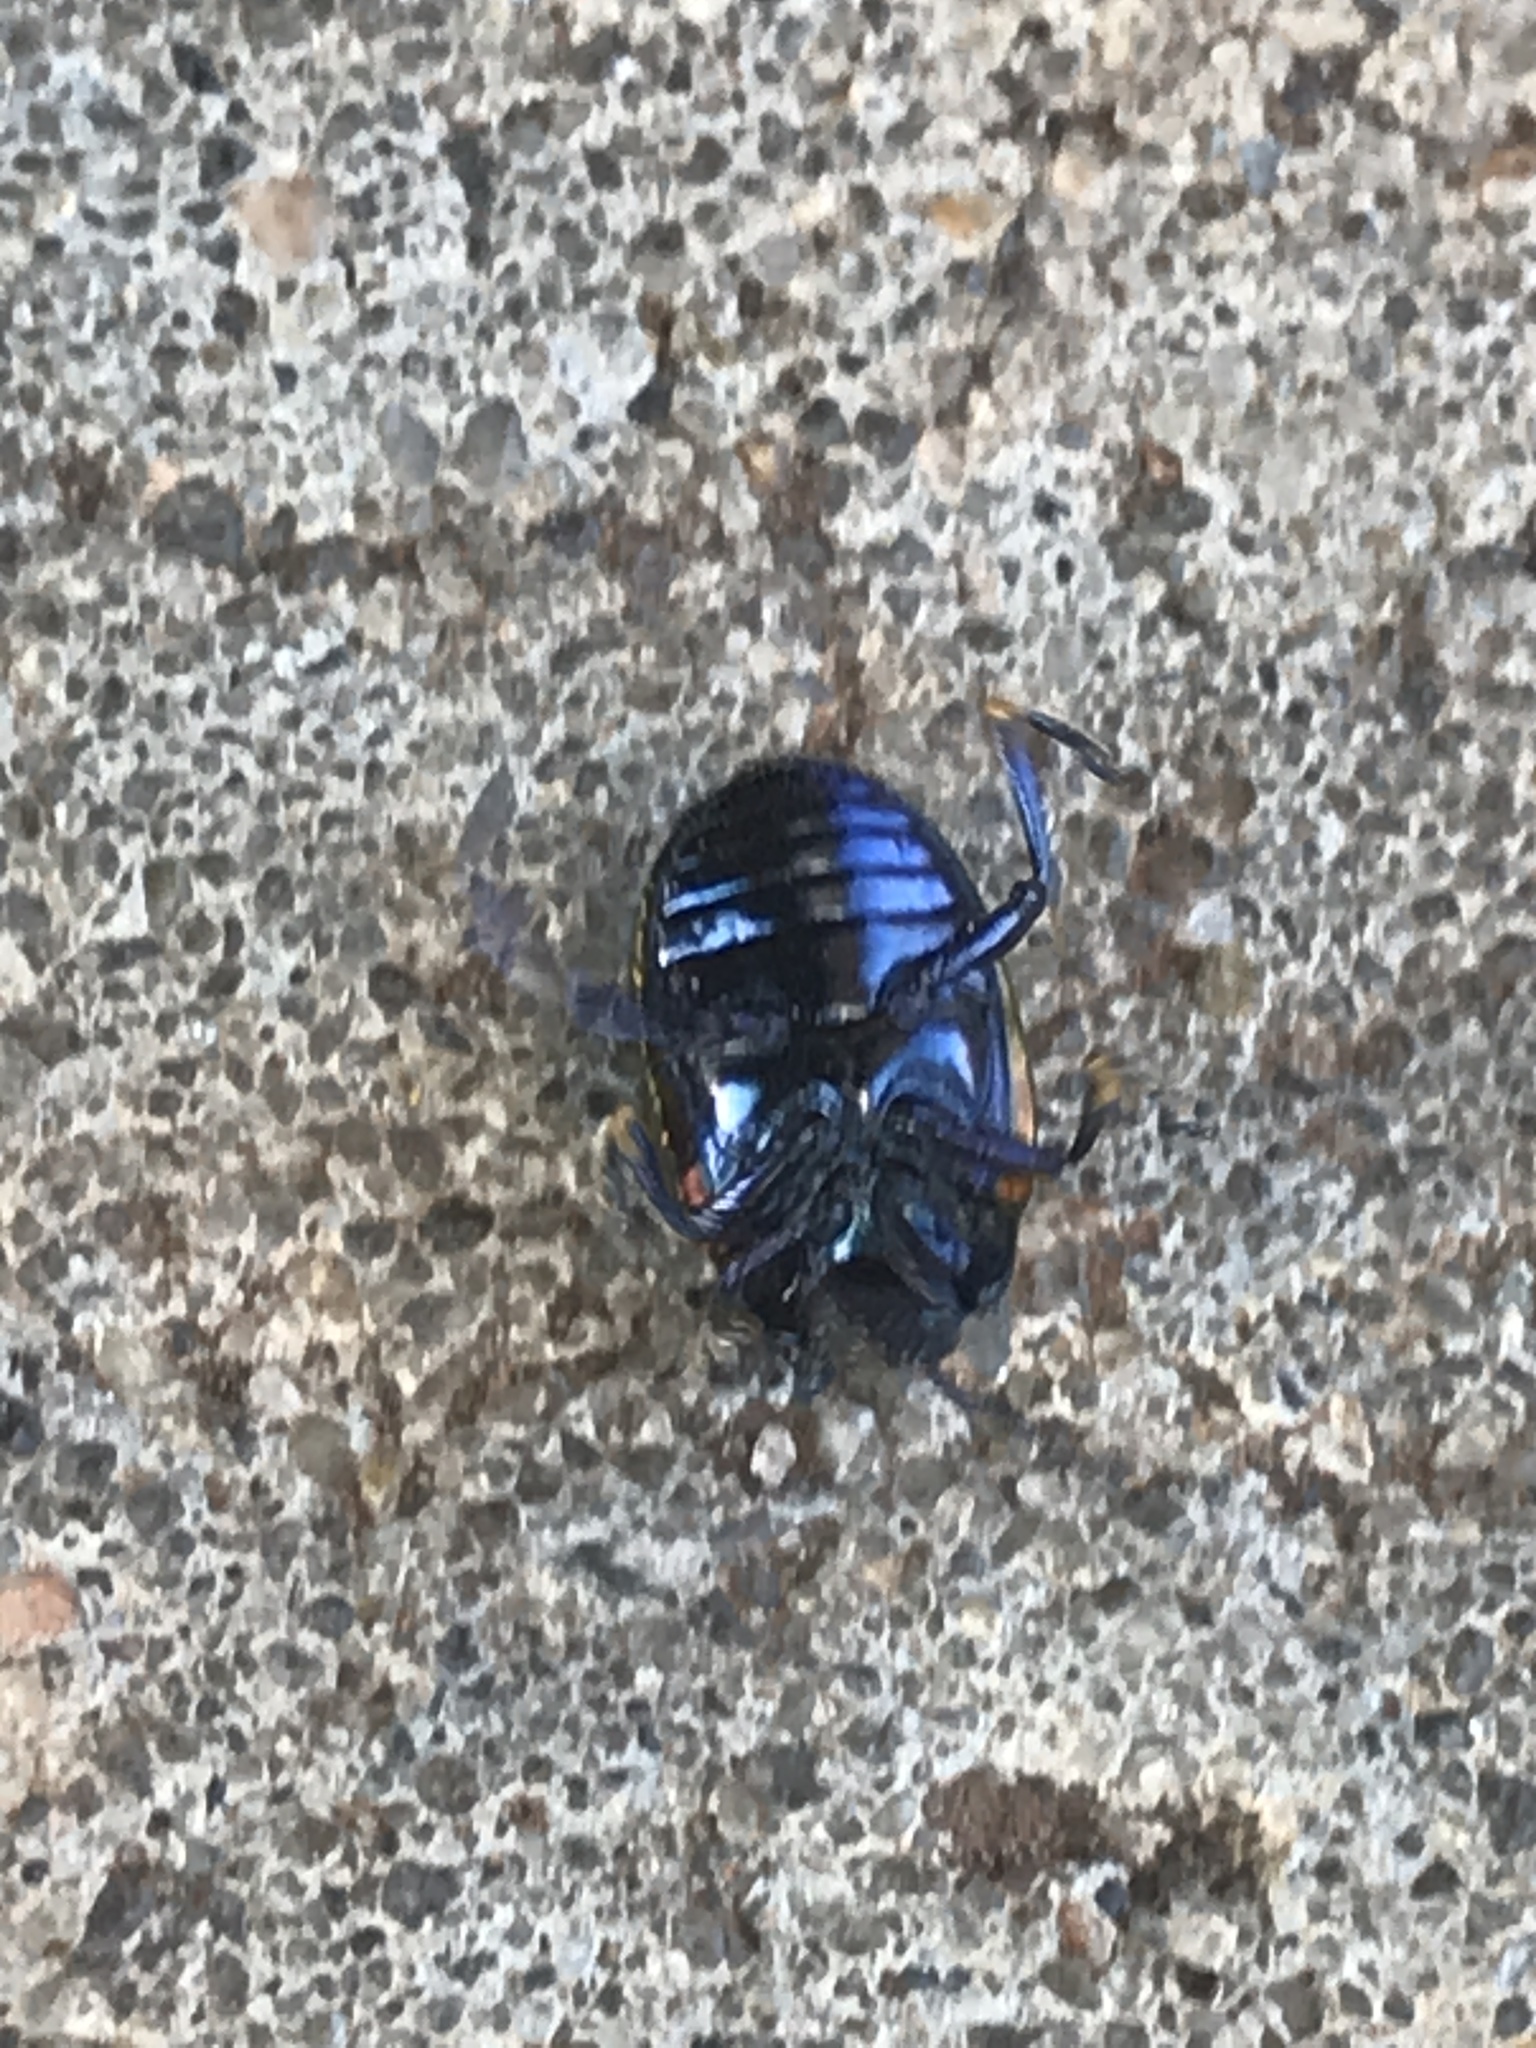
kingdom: Animalia
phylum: Arthropoda
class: Insecta
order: Coleoptera
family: Chrysomelidae
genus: Chrysolina
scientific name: Chrysolina auripennis
